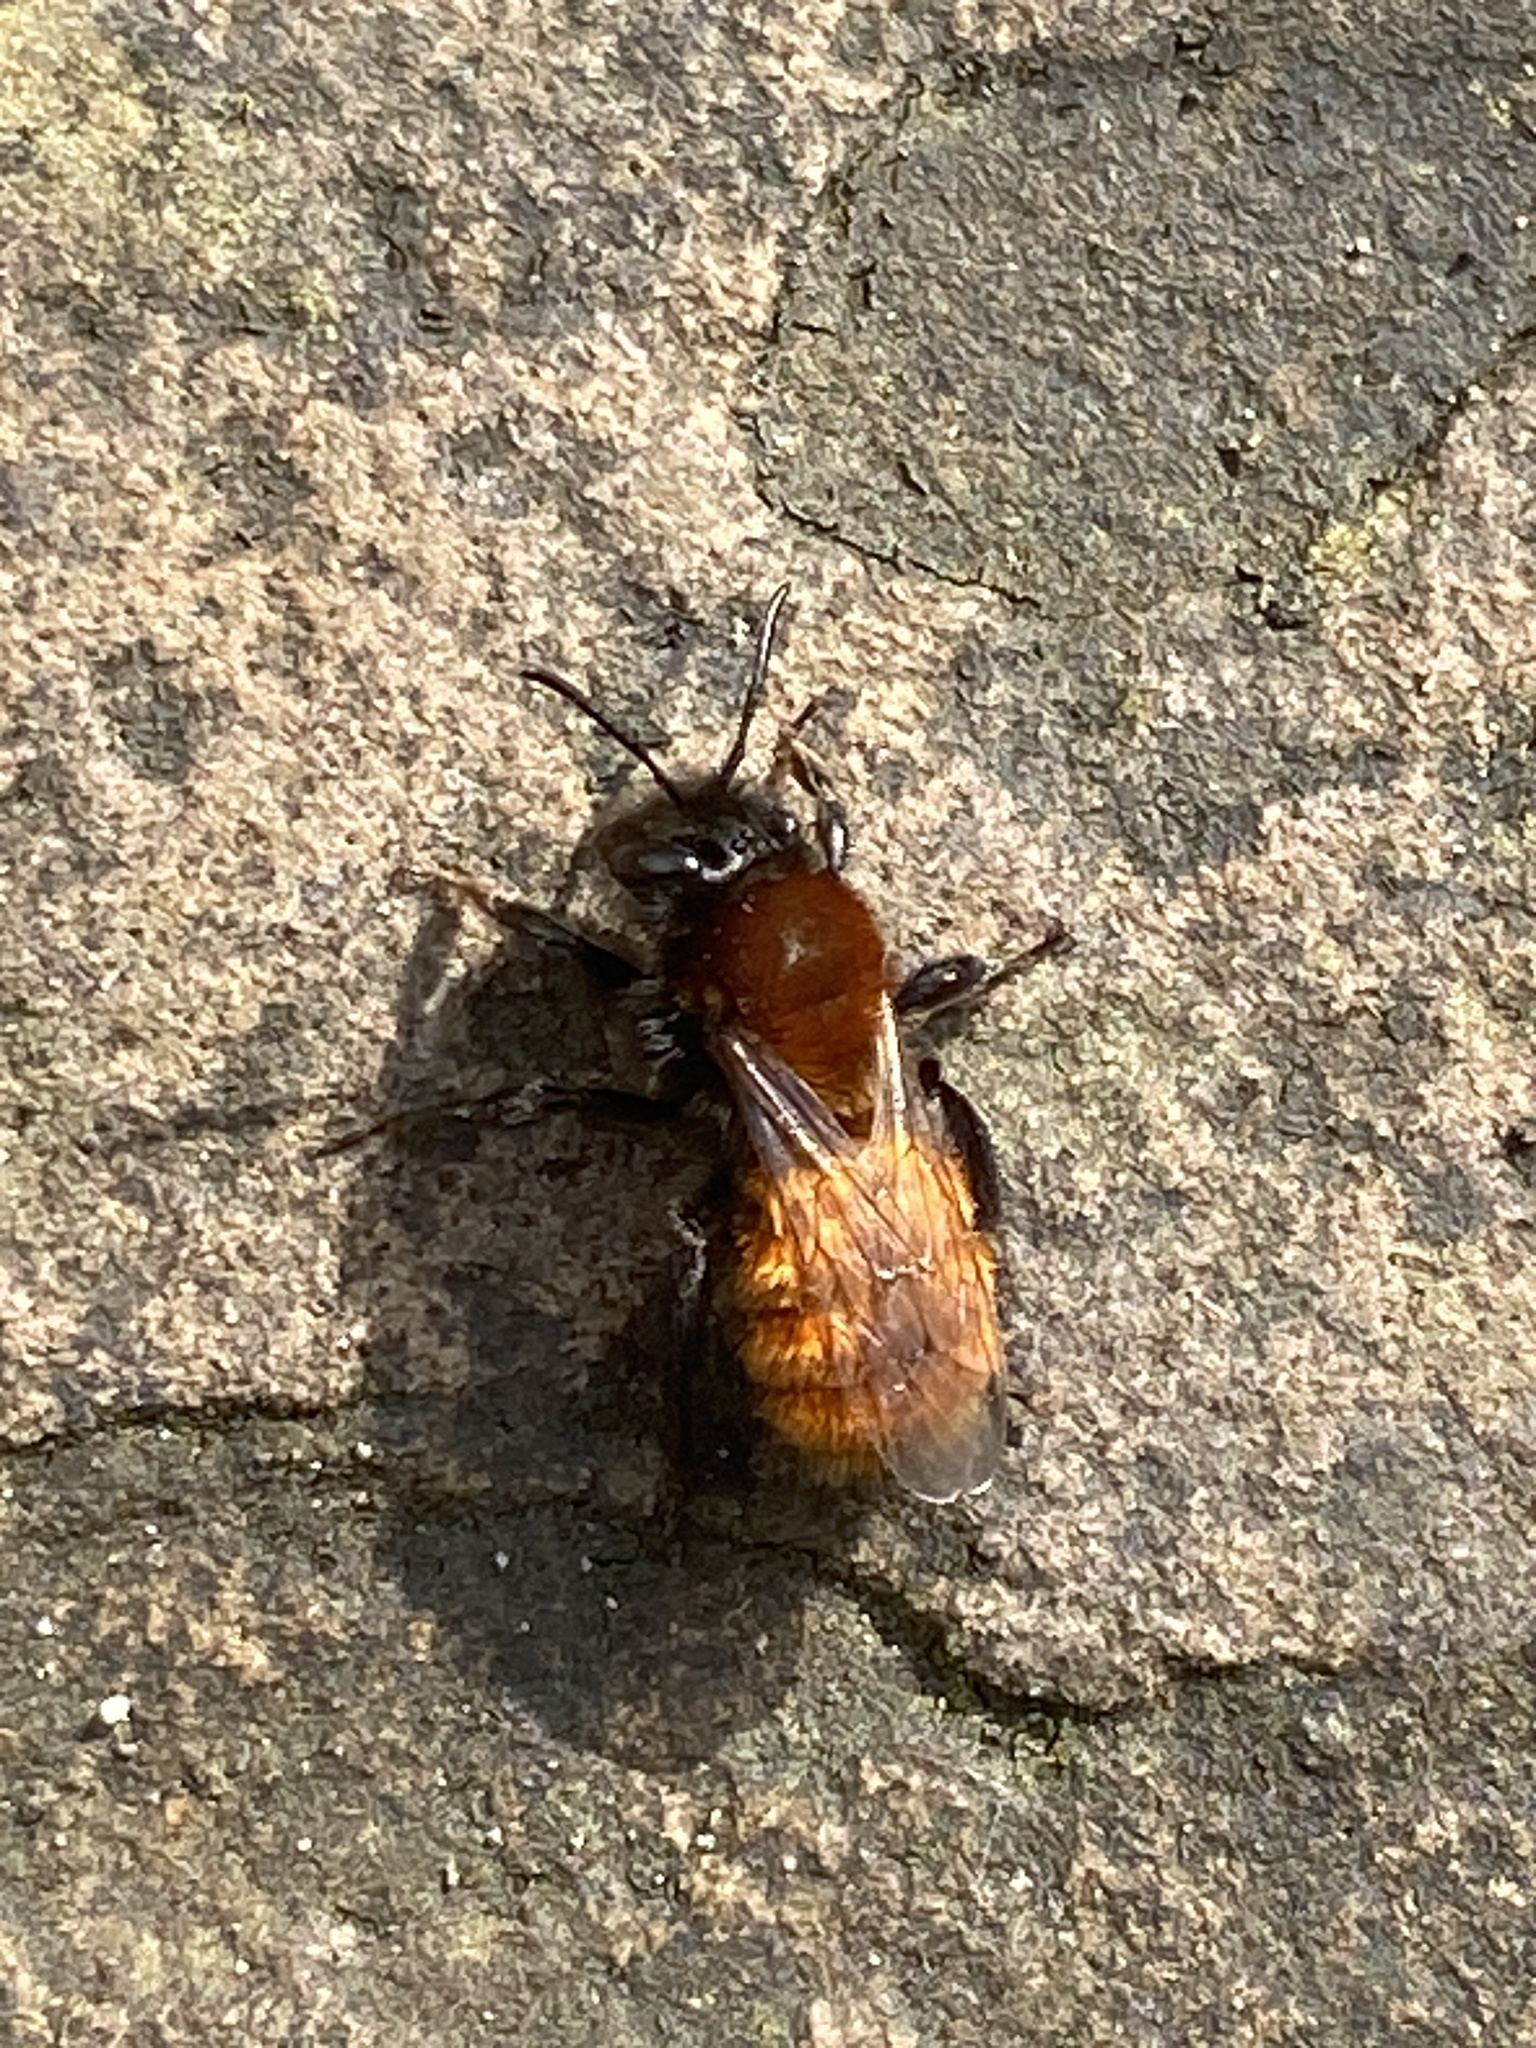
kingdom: Animalia
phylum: Arthropoda
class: Insecta
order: Hymenoptera
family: Andrenidae
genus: Andrena
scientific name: Andrena fulva
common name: Tawny mining bee
